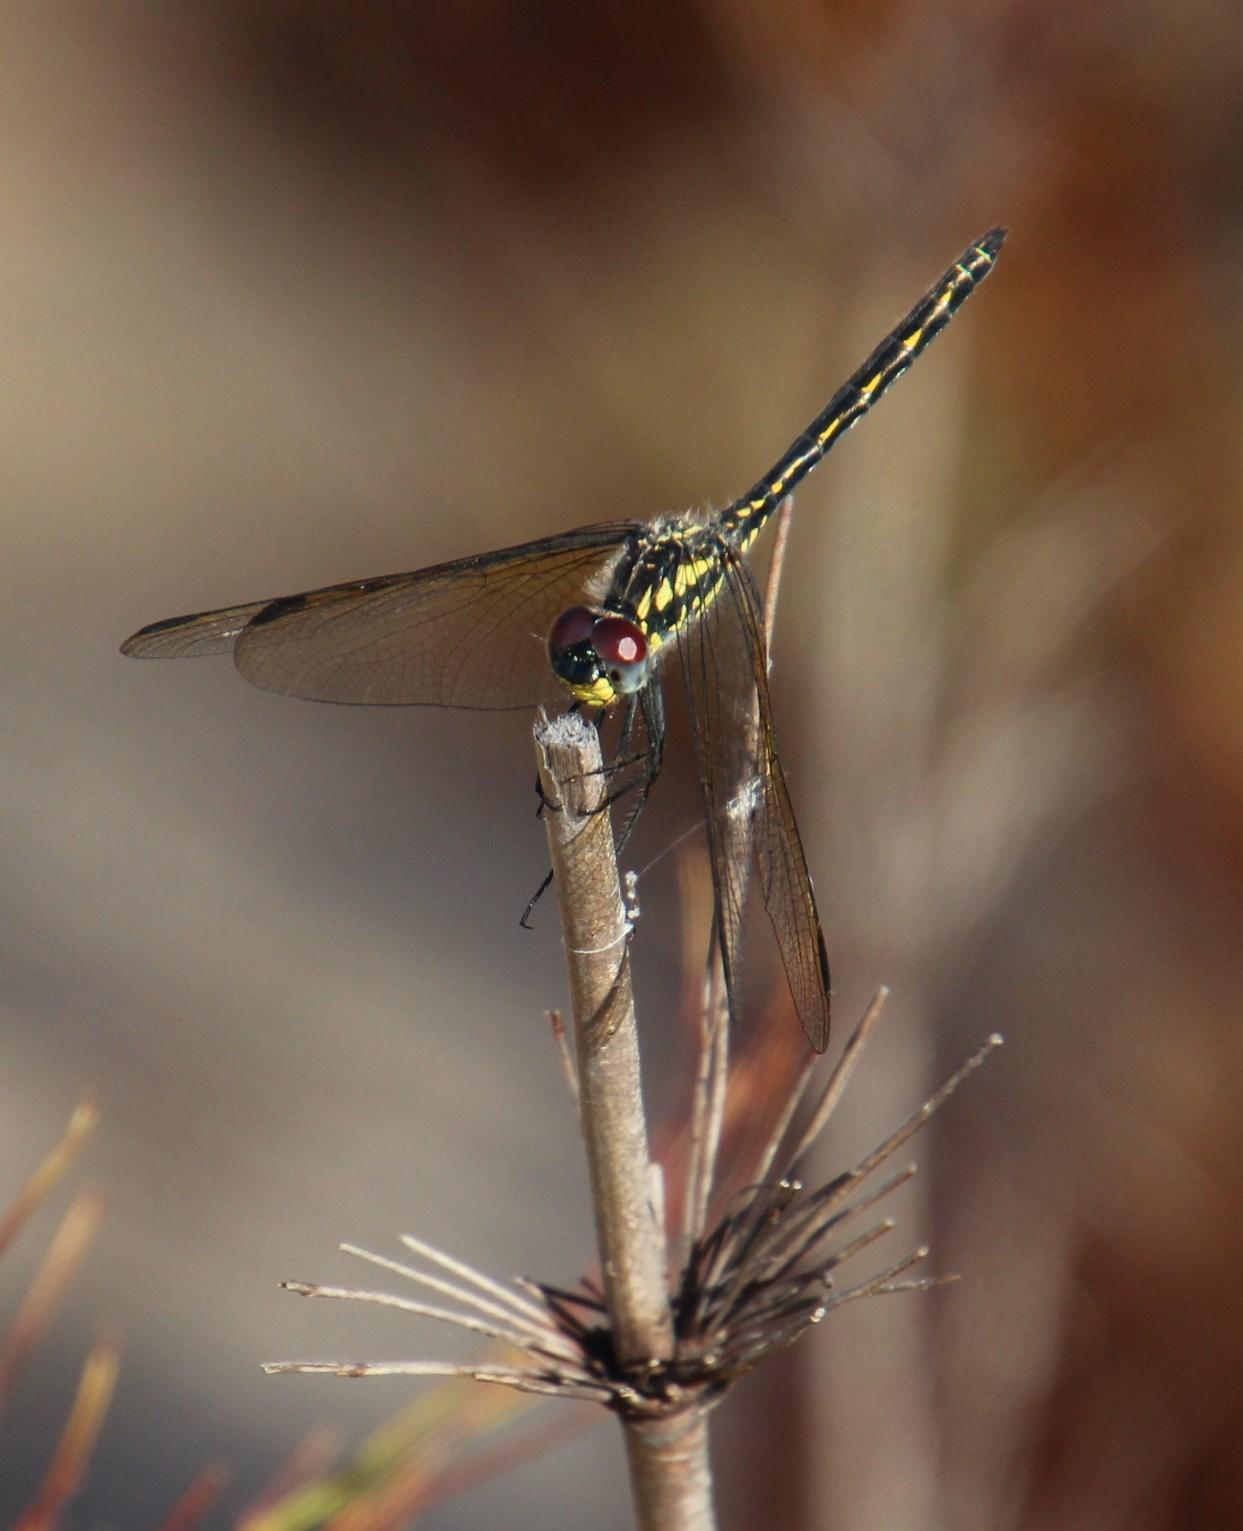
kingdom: Animalia
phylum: Arthropoda
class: Insecta
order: Odonata
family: Libellulidae
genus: Trithemis
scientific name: Trithemis stictica
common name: Jaunty dropwing
